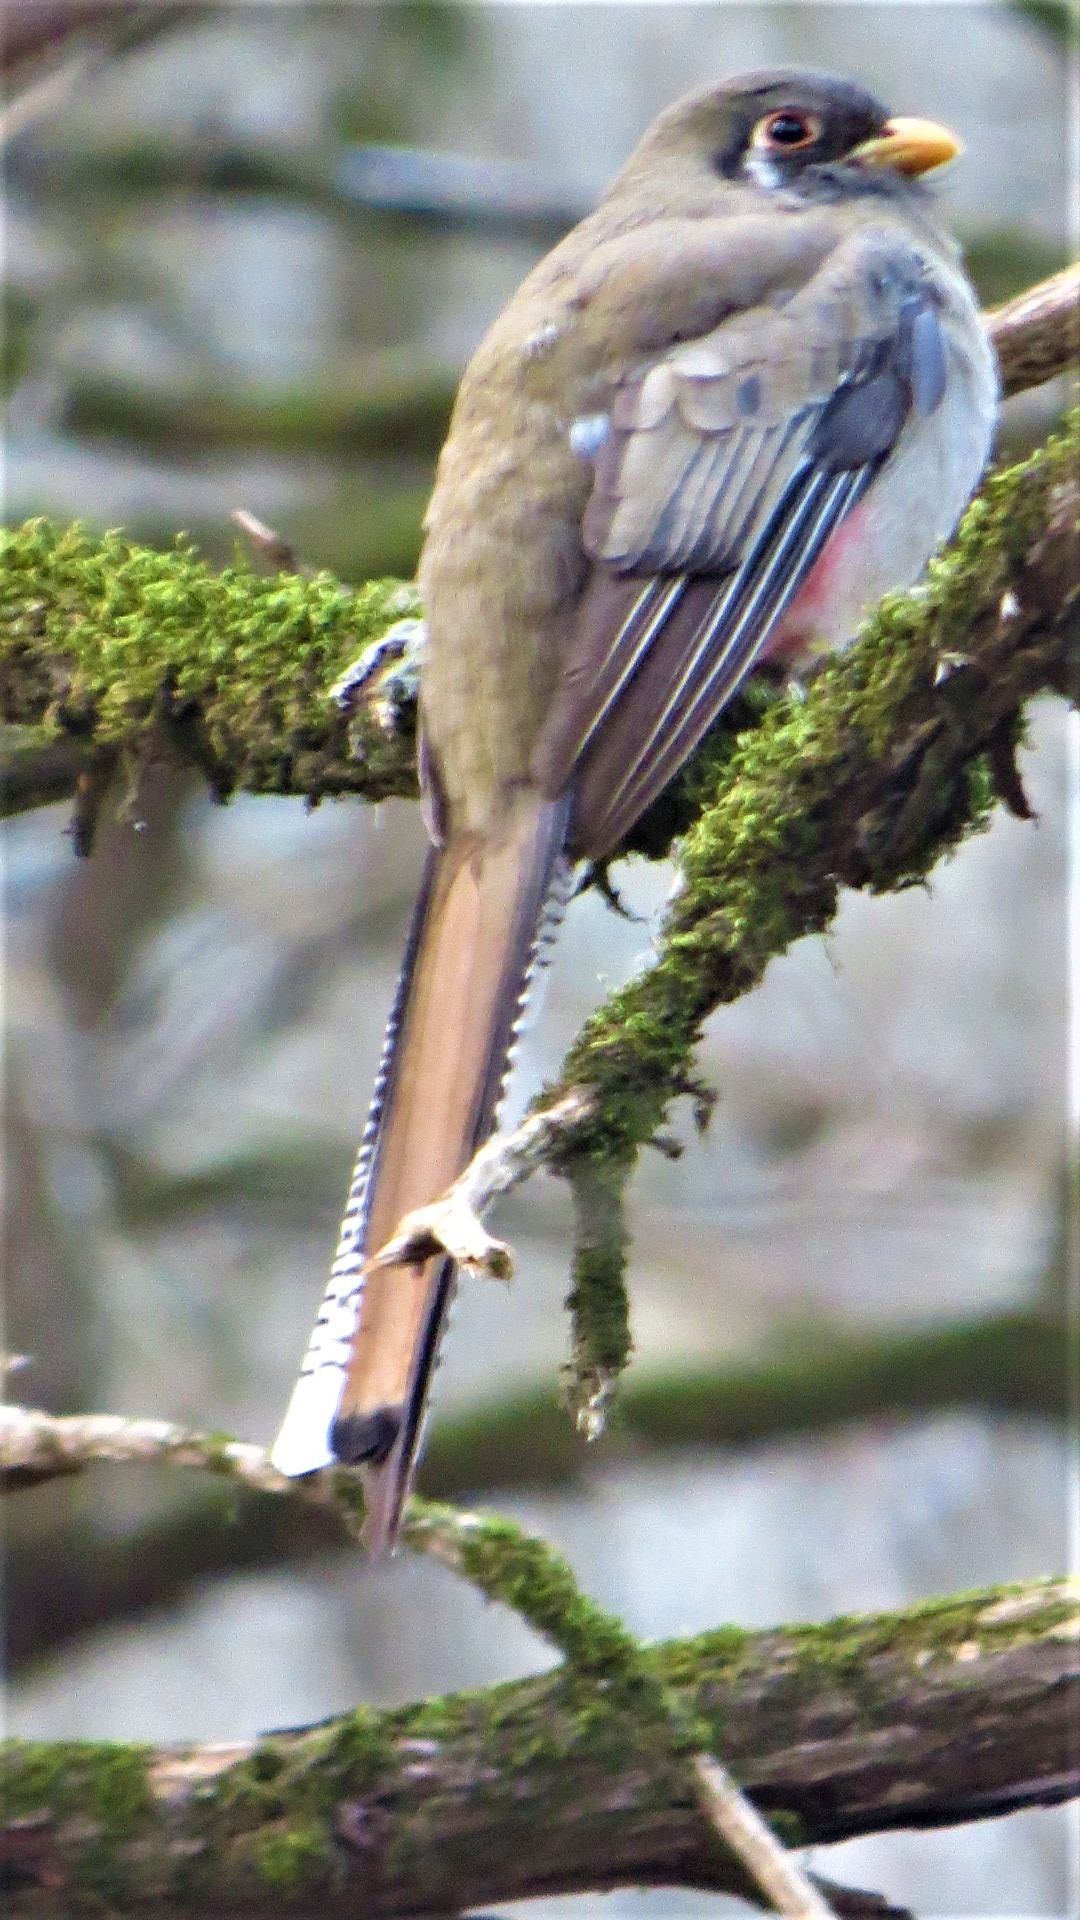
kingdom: Animalia
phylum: Chordata
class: Aves
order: Trogoniformes
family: Trogonidae
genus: Trogon
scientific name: Trogon elegans
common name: Elegant trogon
